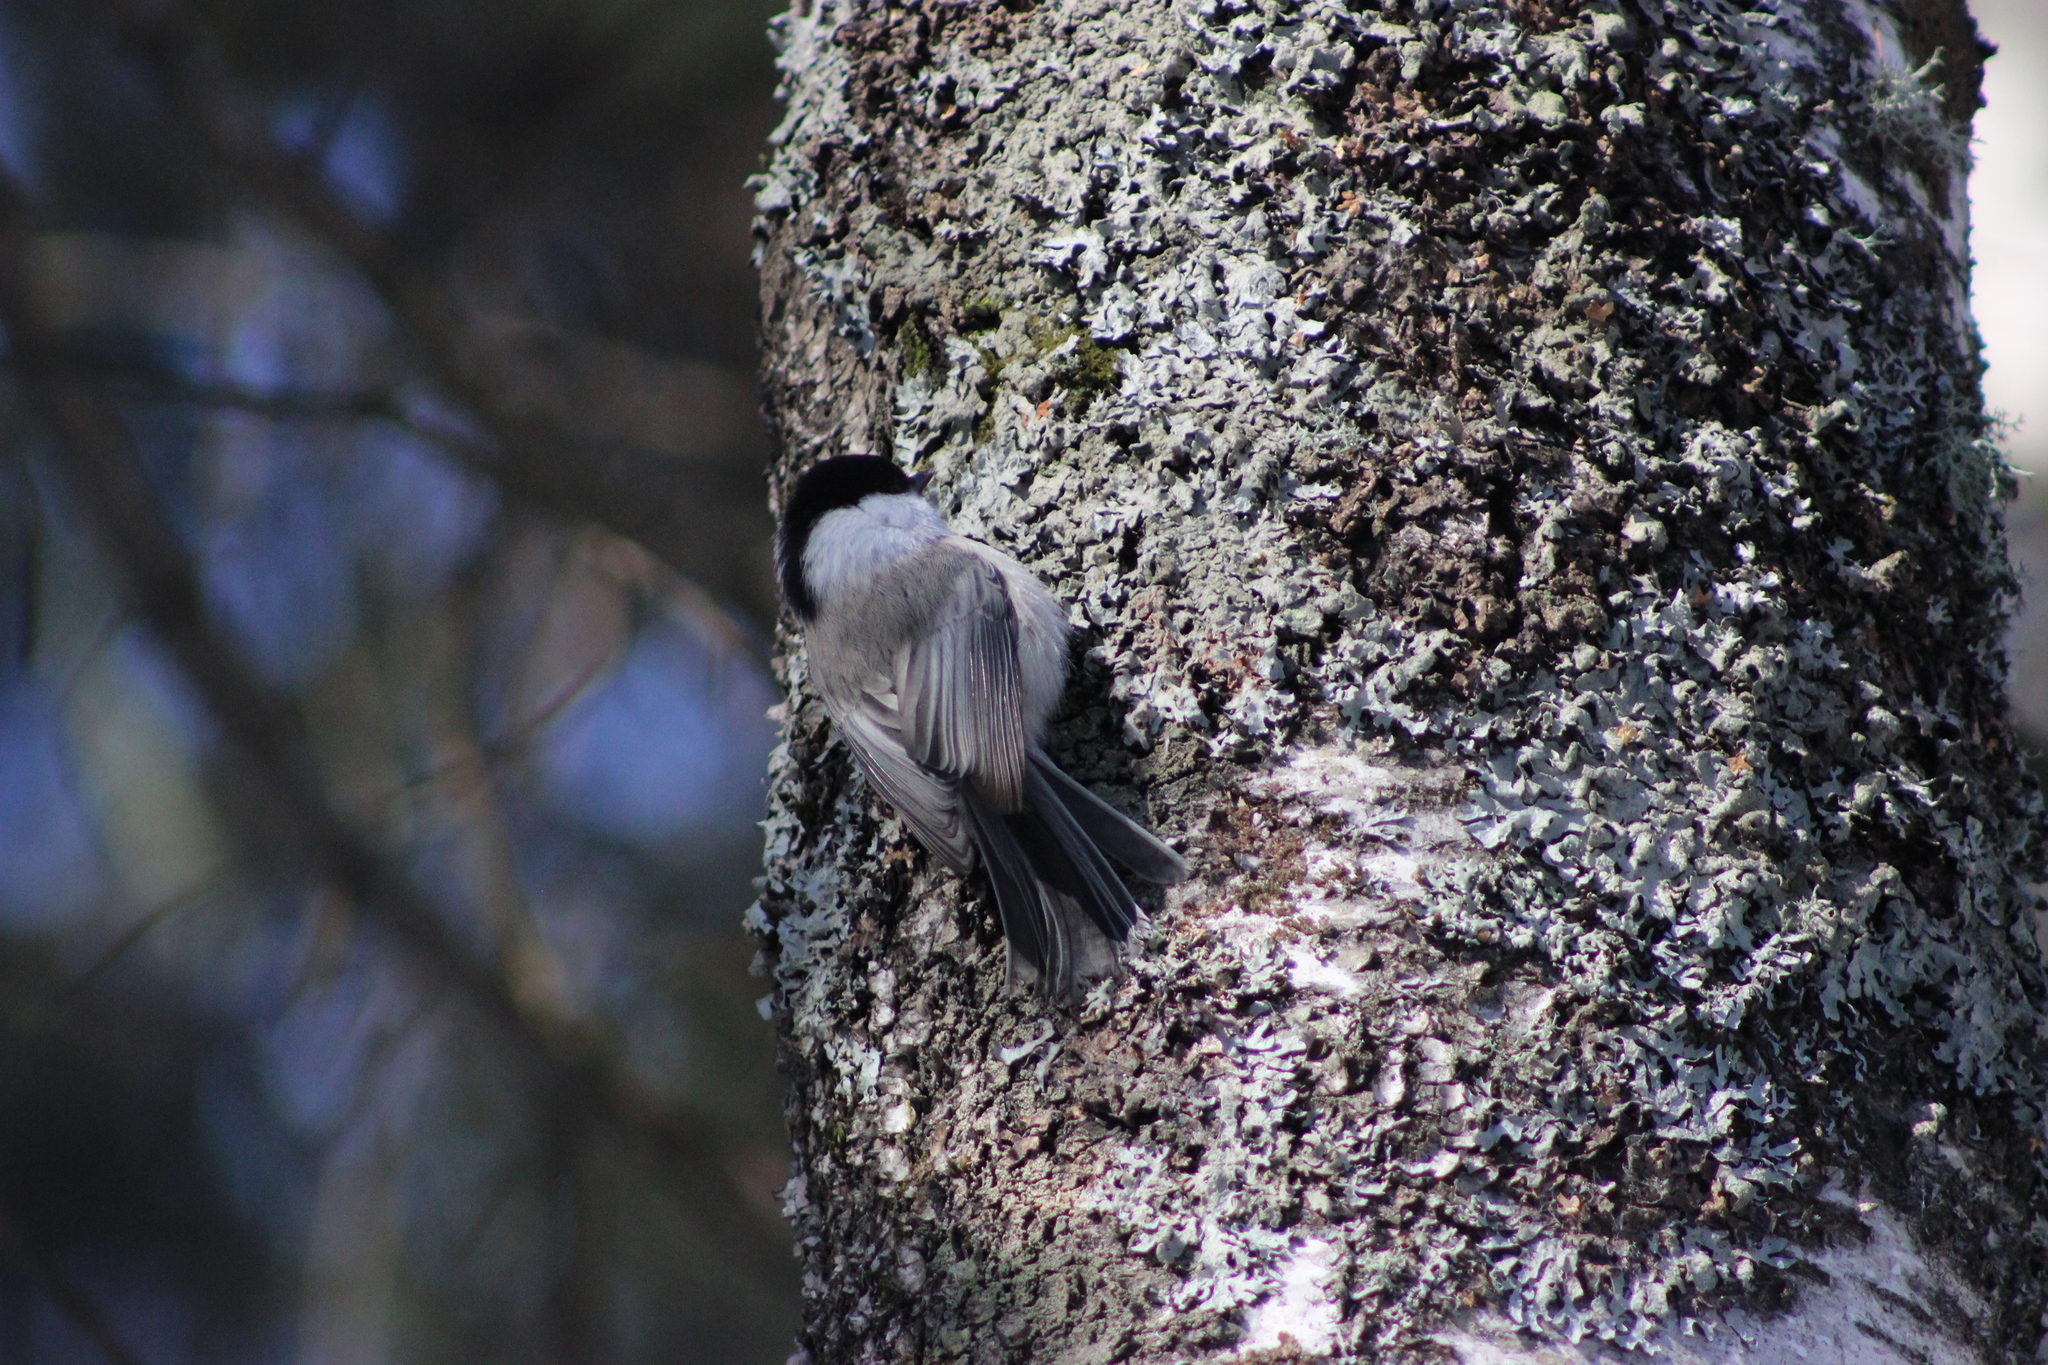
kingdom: Animalia
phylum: Chordata
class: Aves
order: Passeriformes
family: Paridae
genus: Poecile
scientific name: Poecile montanus
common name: Willow tit
